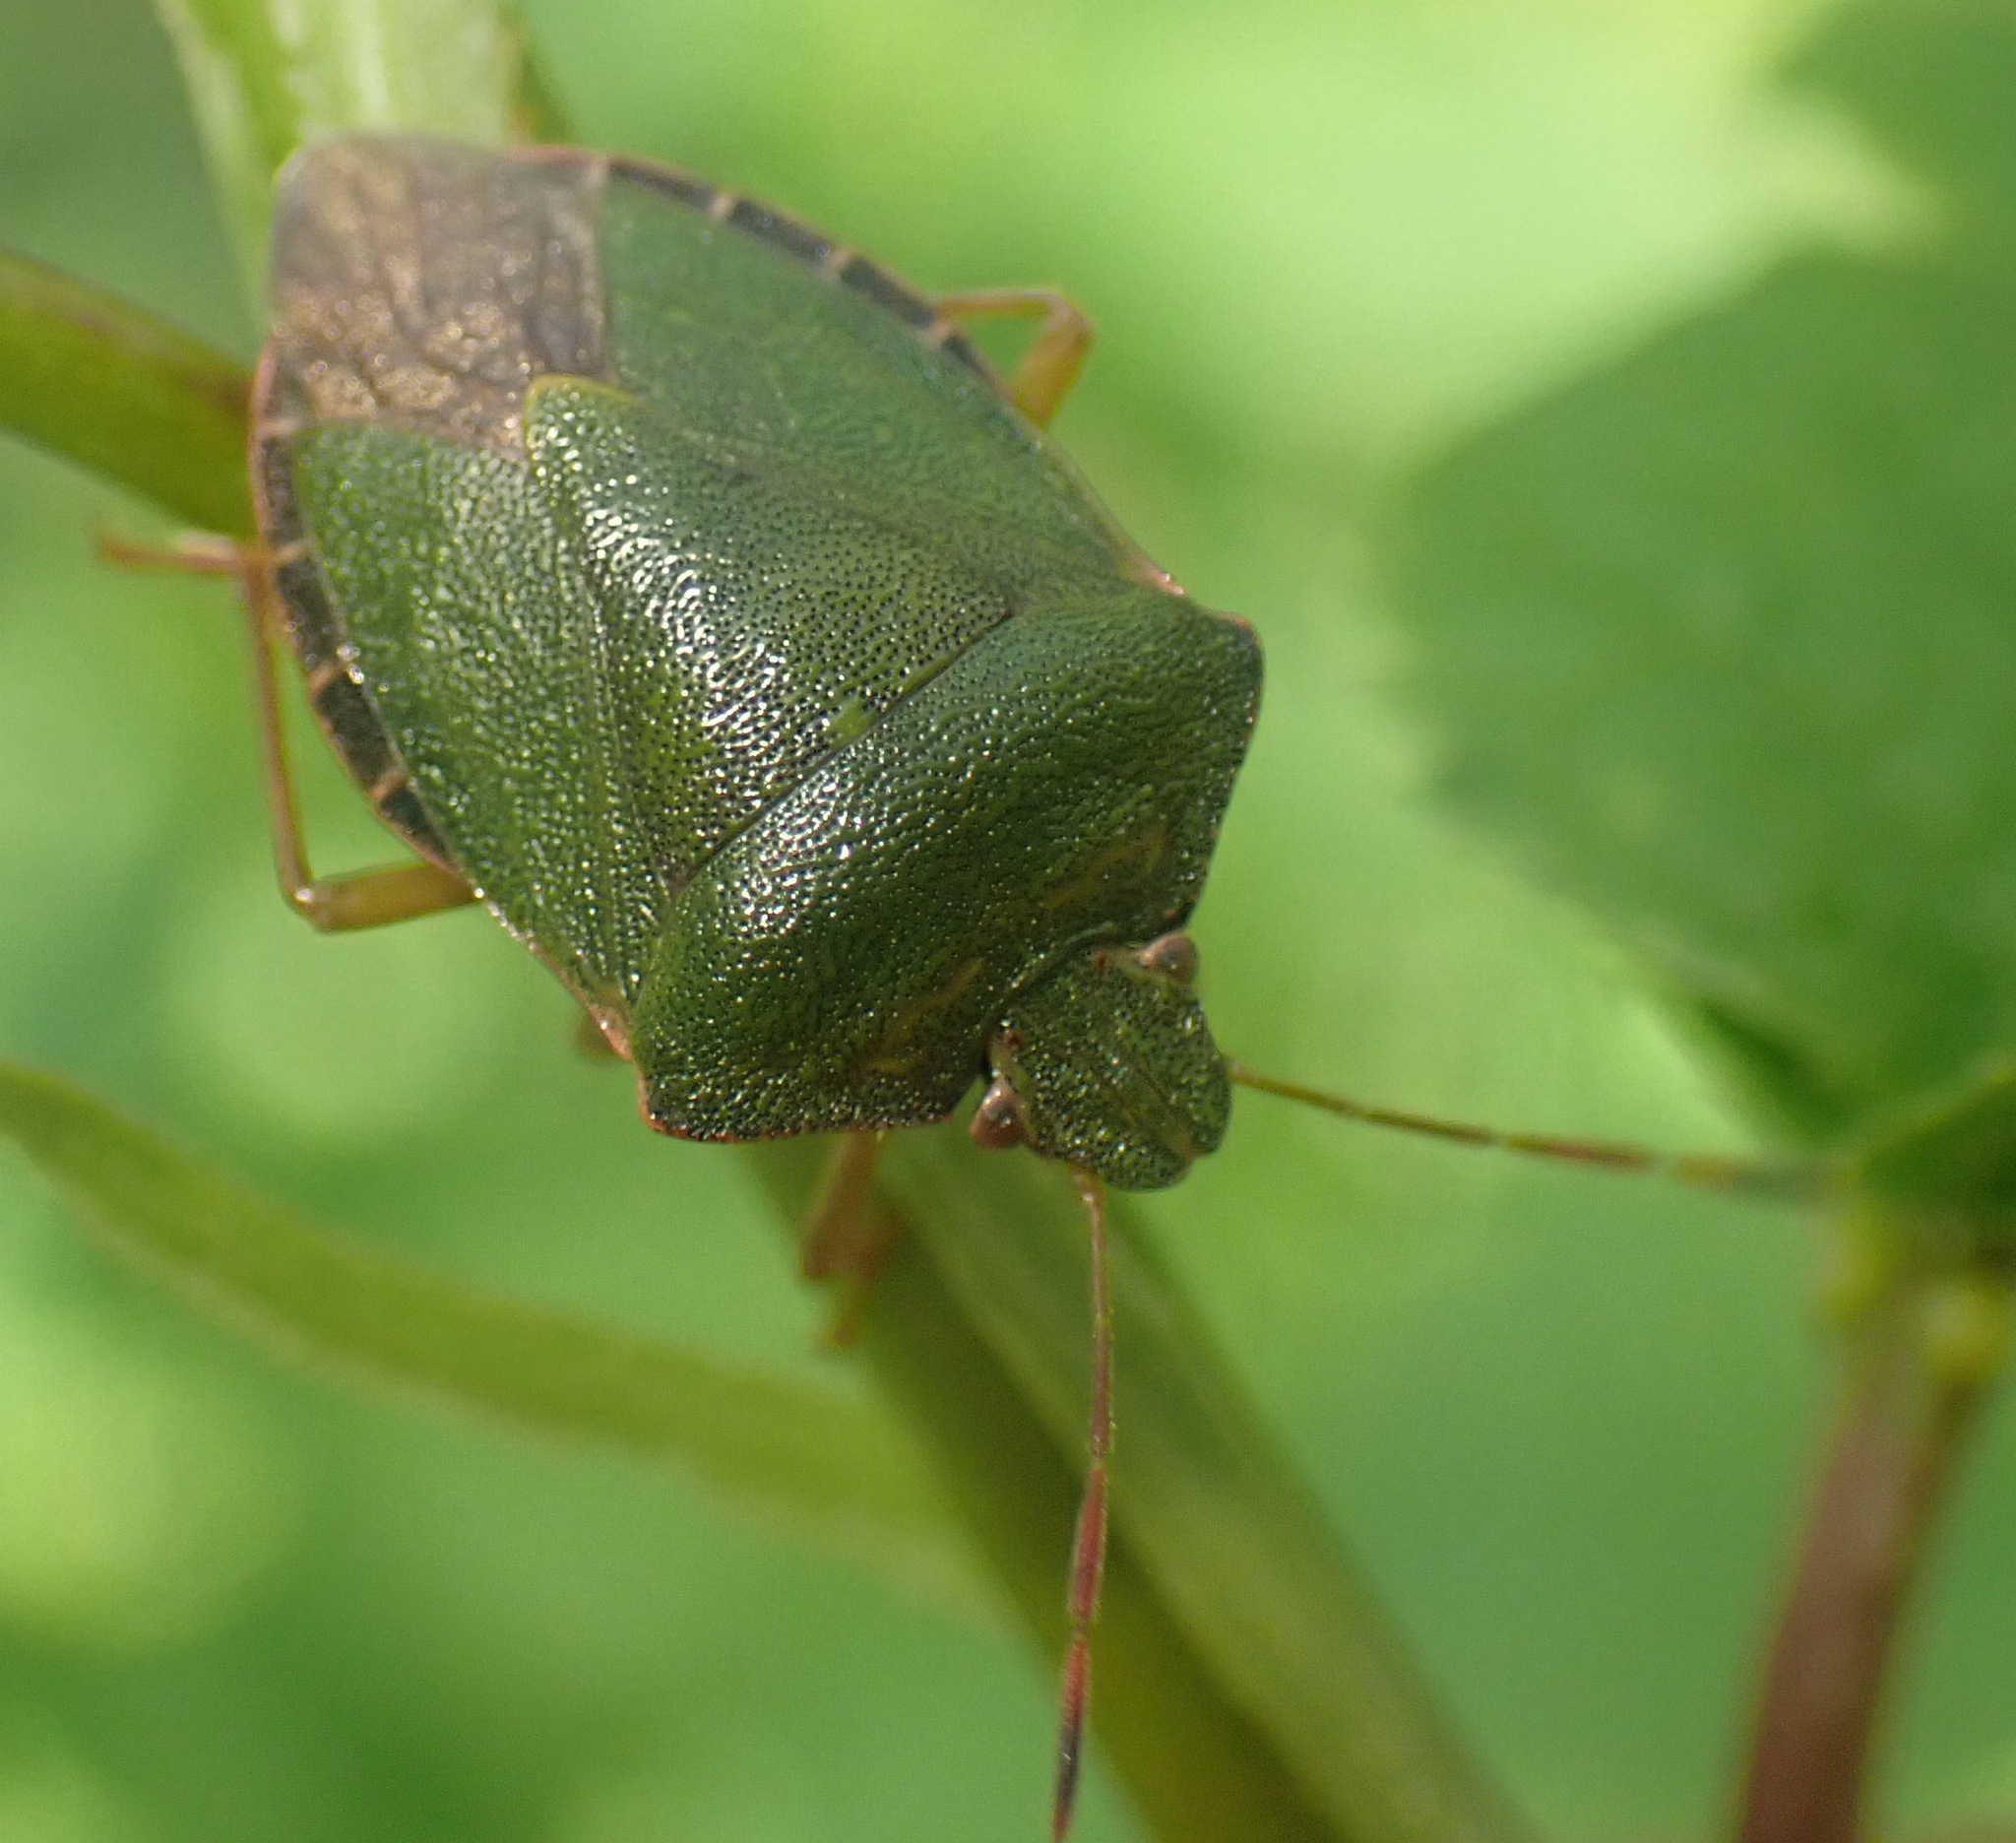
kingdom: Animalia
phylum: Arthropoda
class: Insecta
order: Hemiptera
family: Pentatomidae
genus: Palomena
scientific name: Palomena prasina
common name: Green shieldbug
